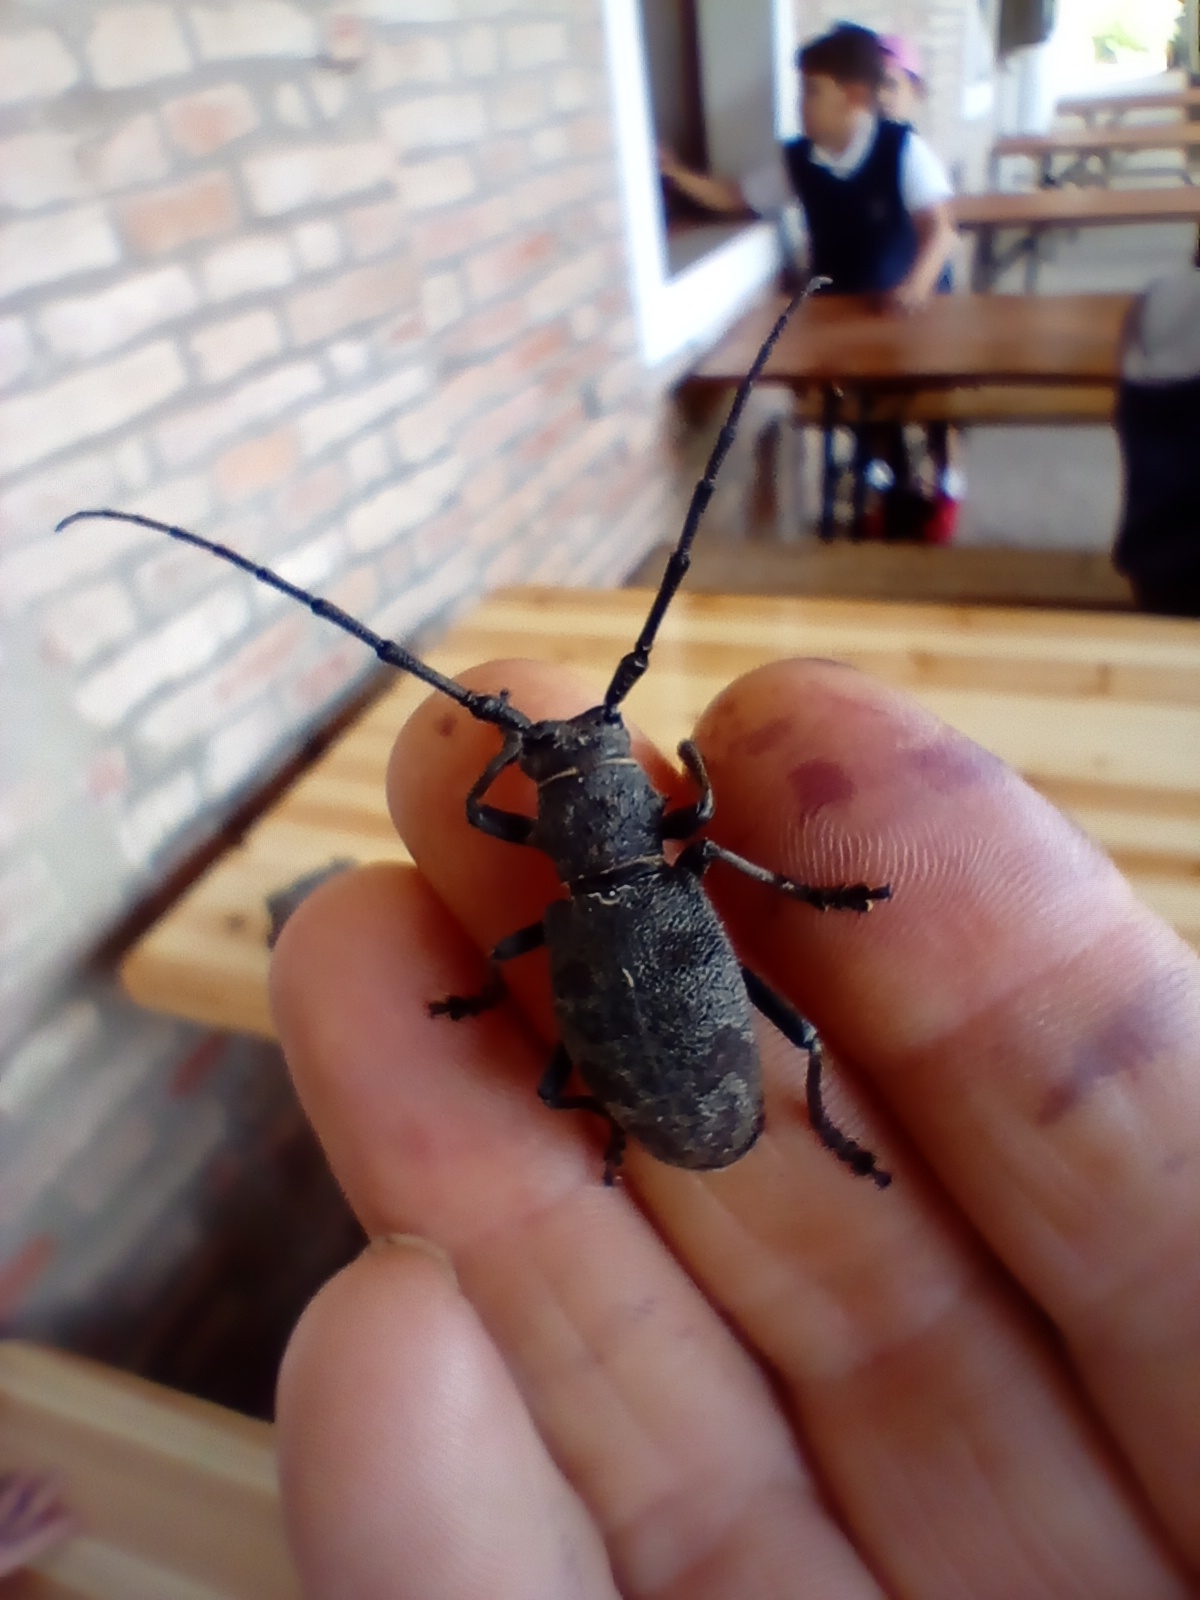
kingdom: Animalia
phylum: Arthropoda
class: Insecta
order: Coleoptera
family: Cerambycidae
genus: Morimus
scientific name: Morimus asper
